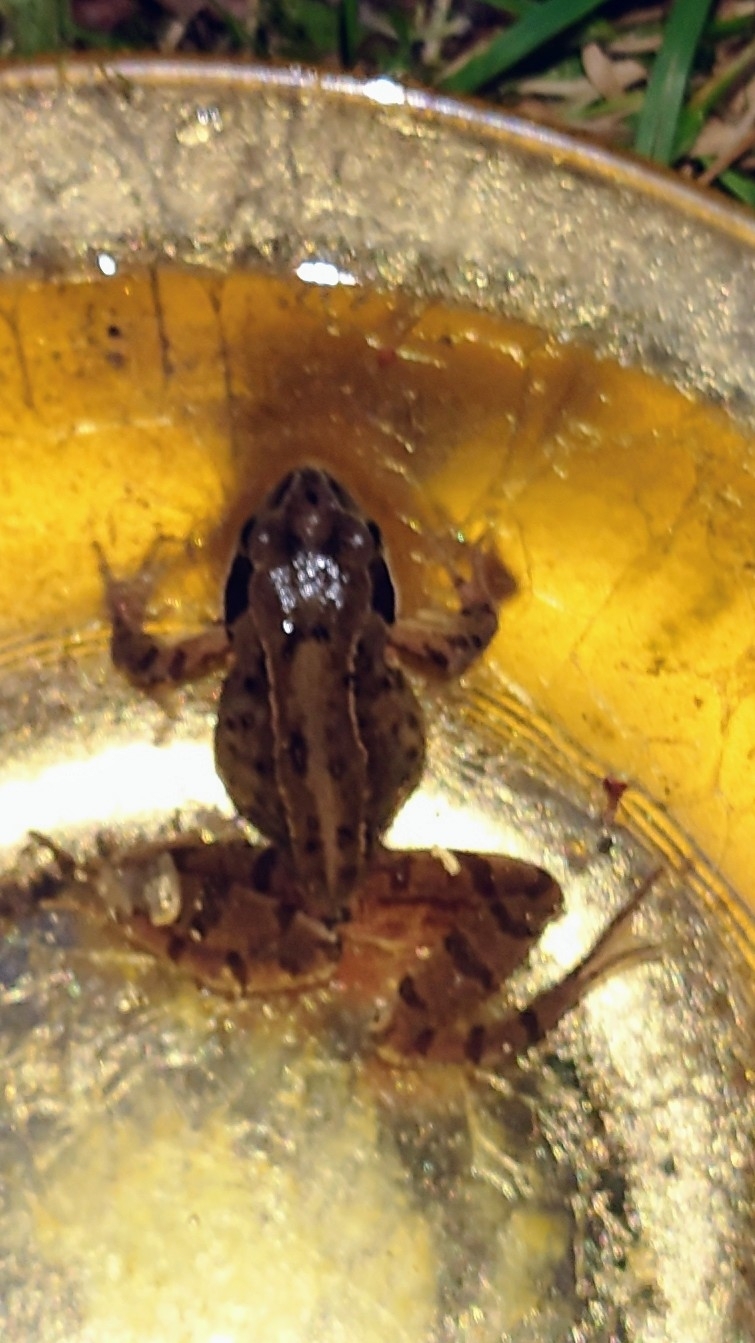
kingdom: Animalia
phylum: Chordata
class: Amphibia
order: Anura
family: Ranidae
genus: Rana
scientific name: Rana temporaria
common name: Common frog
